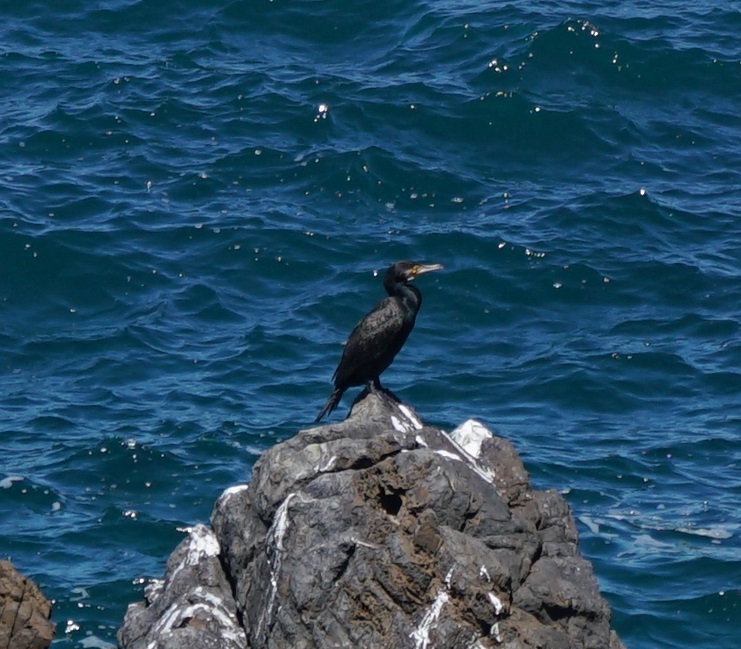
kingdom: Animalia
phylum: Chordata
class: Aves
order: Suliformes
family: Phalacrocoracidae
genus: Phalacrocorax
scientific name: Phalacrocorax carbo
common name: Great cormorant
